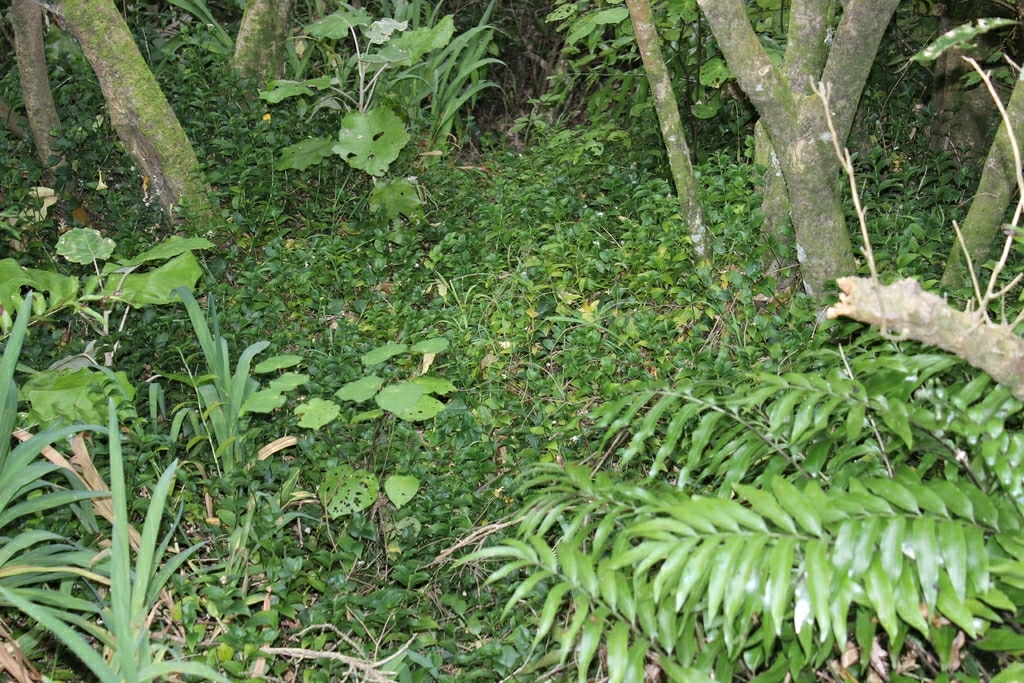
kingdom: Plantae
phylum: Tracheophyta
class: Polypodiopsida
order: Polypodiales
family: Aspleniaceae
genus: Asplenium
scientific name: Asplenium oblongifolium
